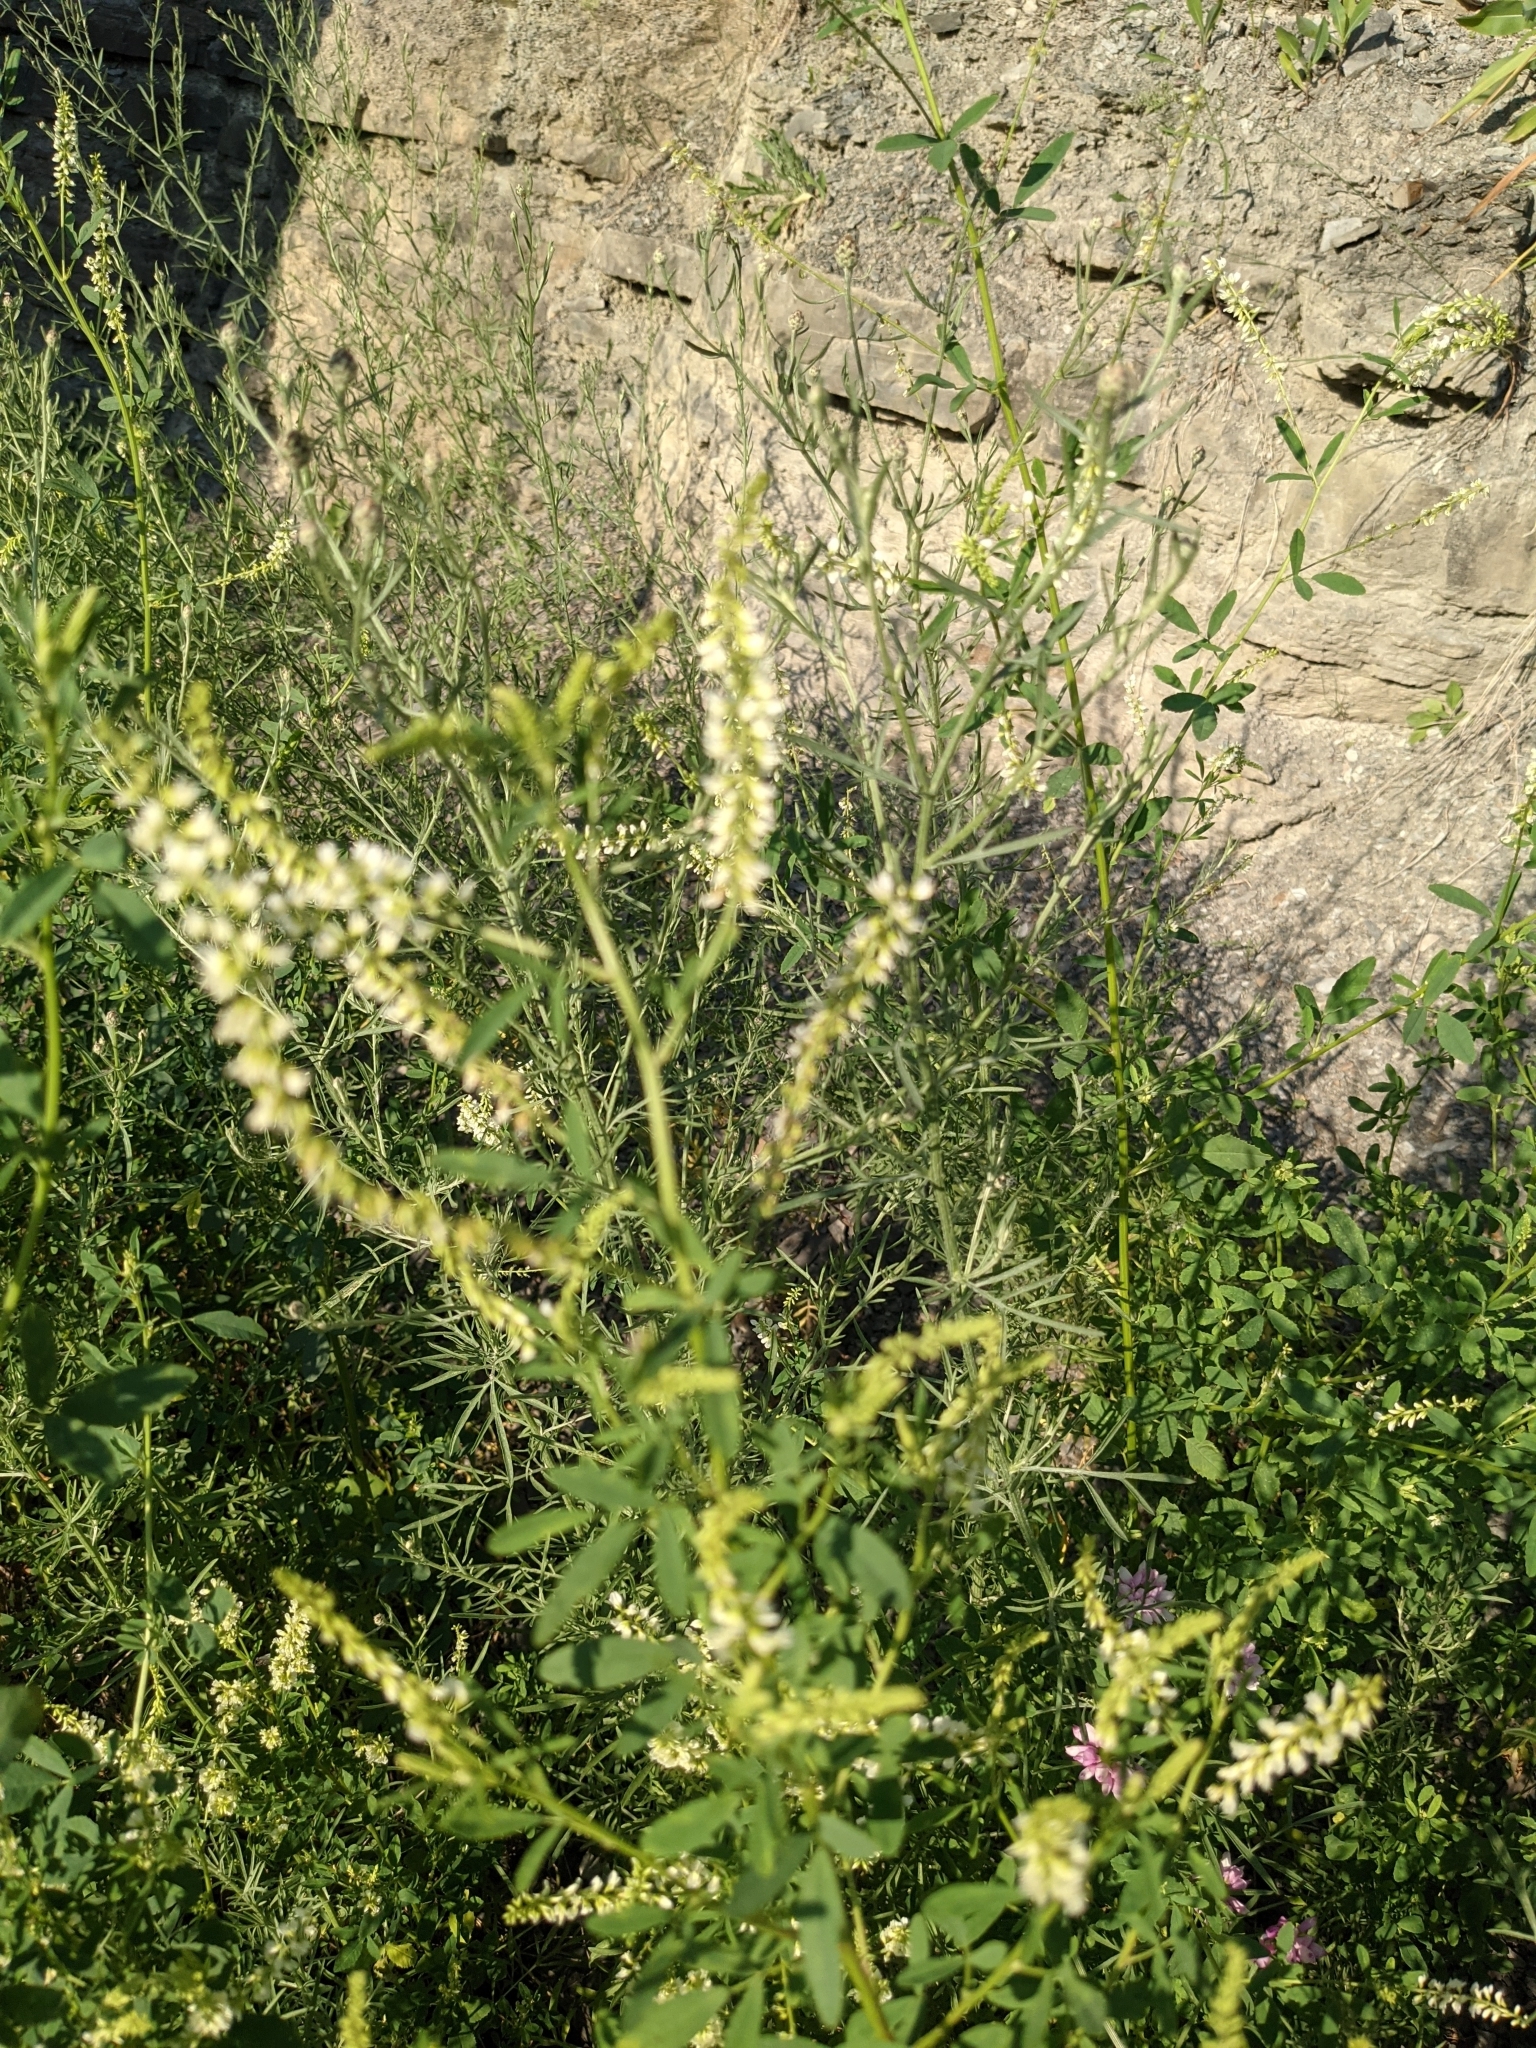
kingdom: Plantae
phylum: Tracheophyta
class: Magnoliopsida
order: Fabales
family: Fabaceae
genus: Melilotus
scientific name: Melilotus albus
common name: White melilot
